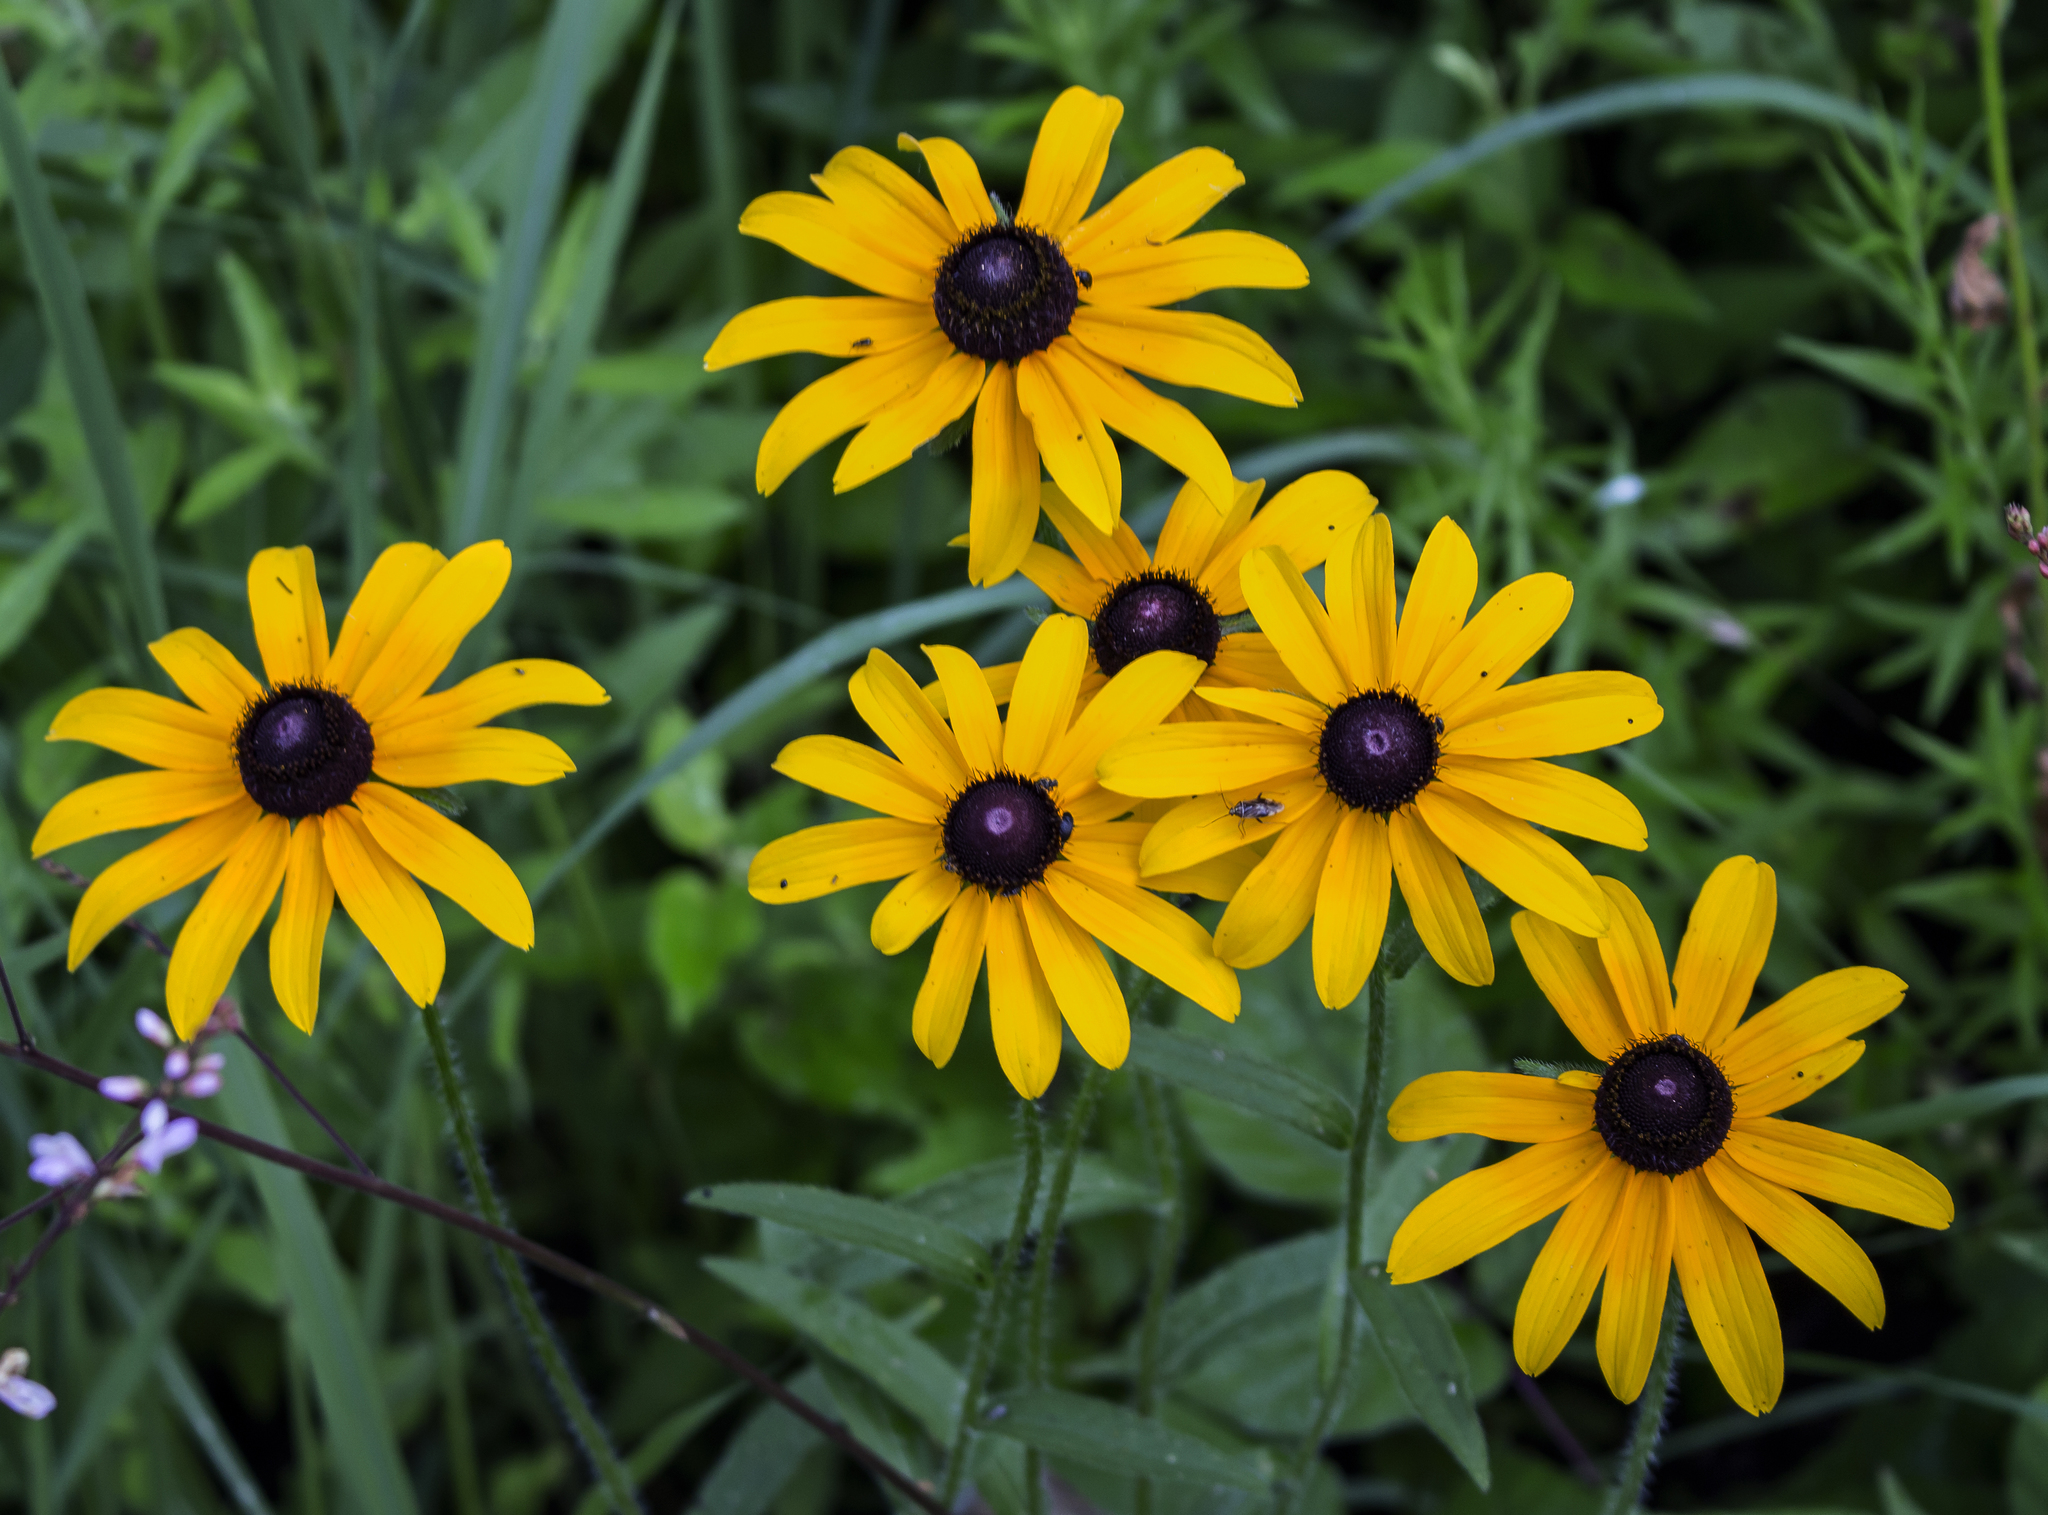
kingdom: Plantae
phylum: Tracheophyta
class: Magnoliopsida
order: Asterales
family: Asteraceae
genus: Rudbeckia
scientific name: Rudbeckia hirta
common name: Black-eyed-susan
